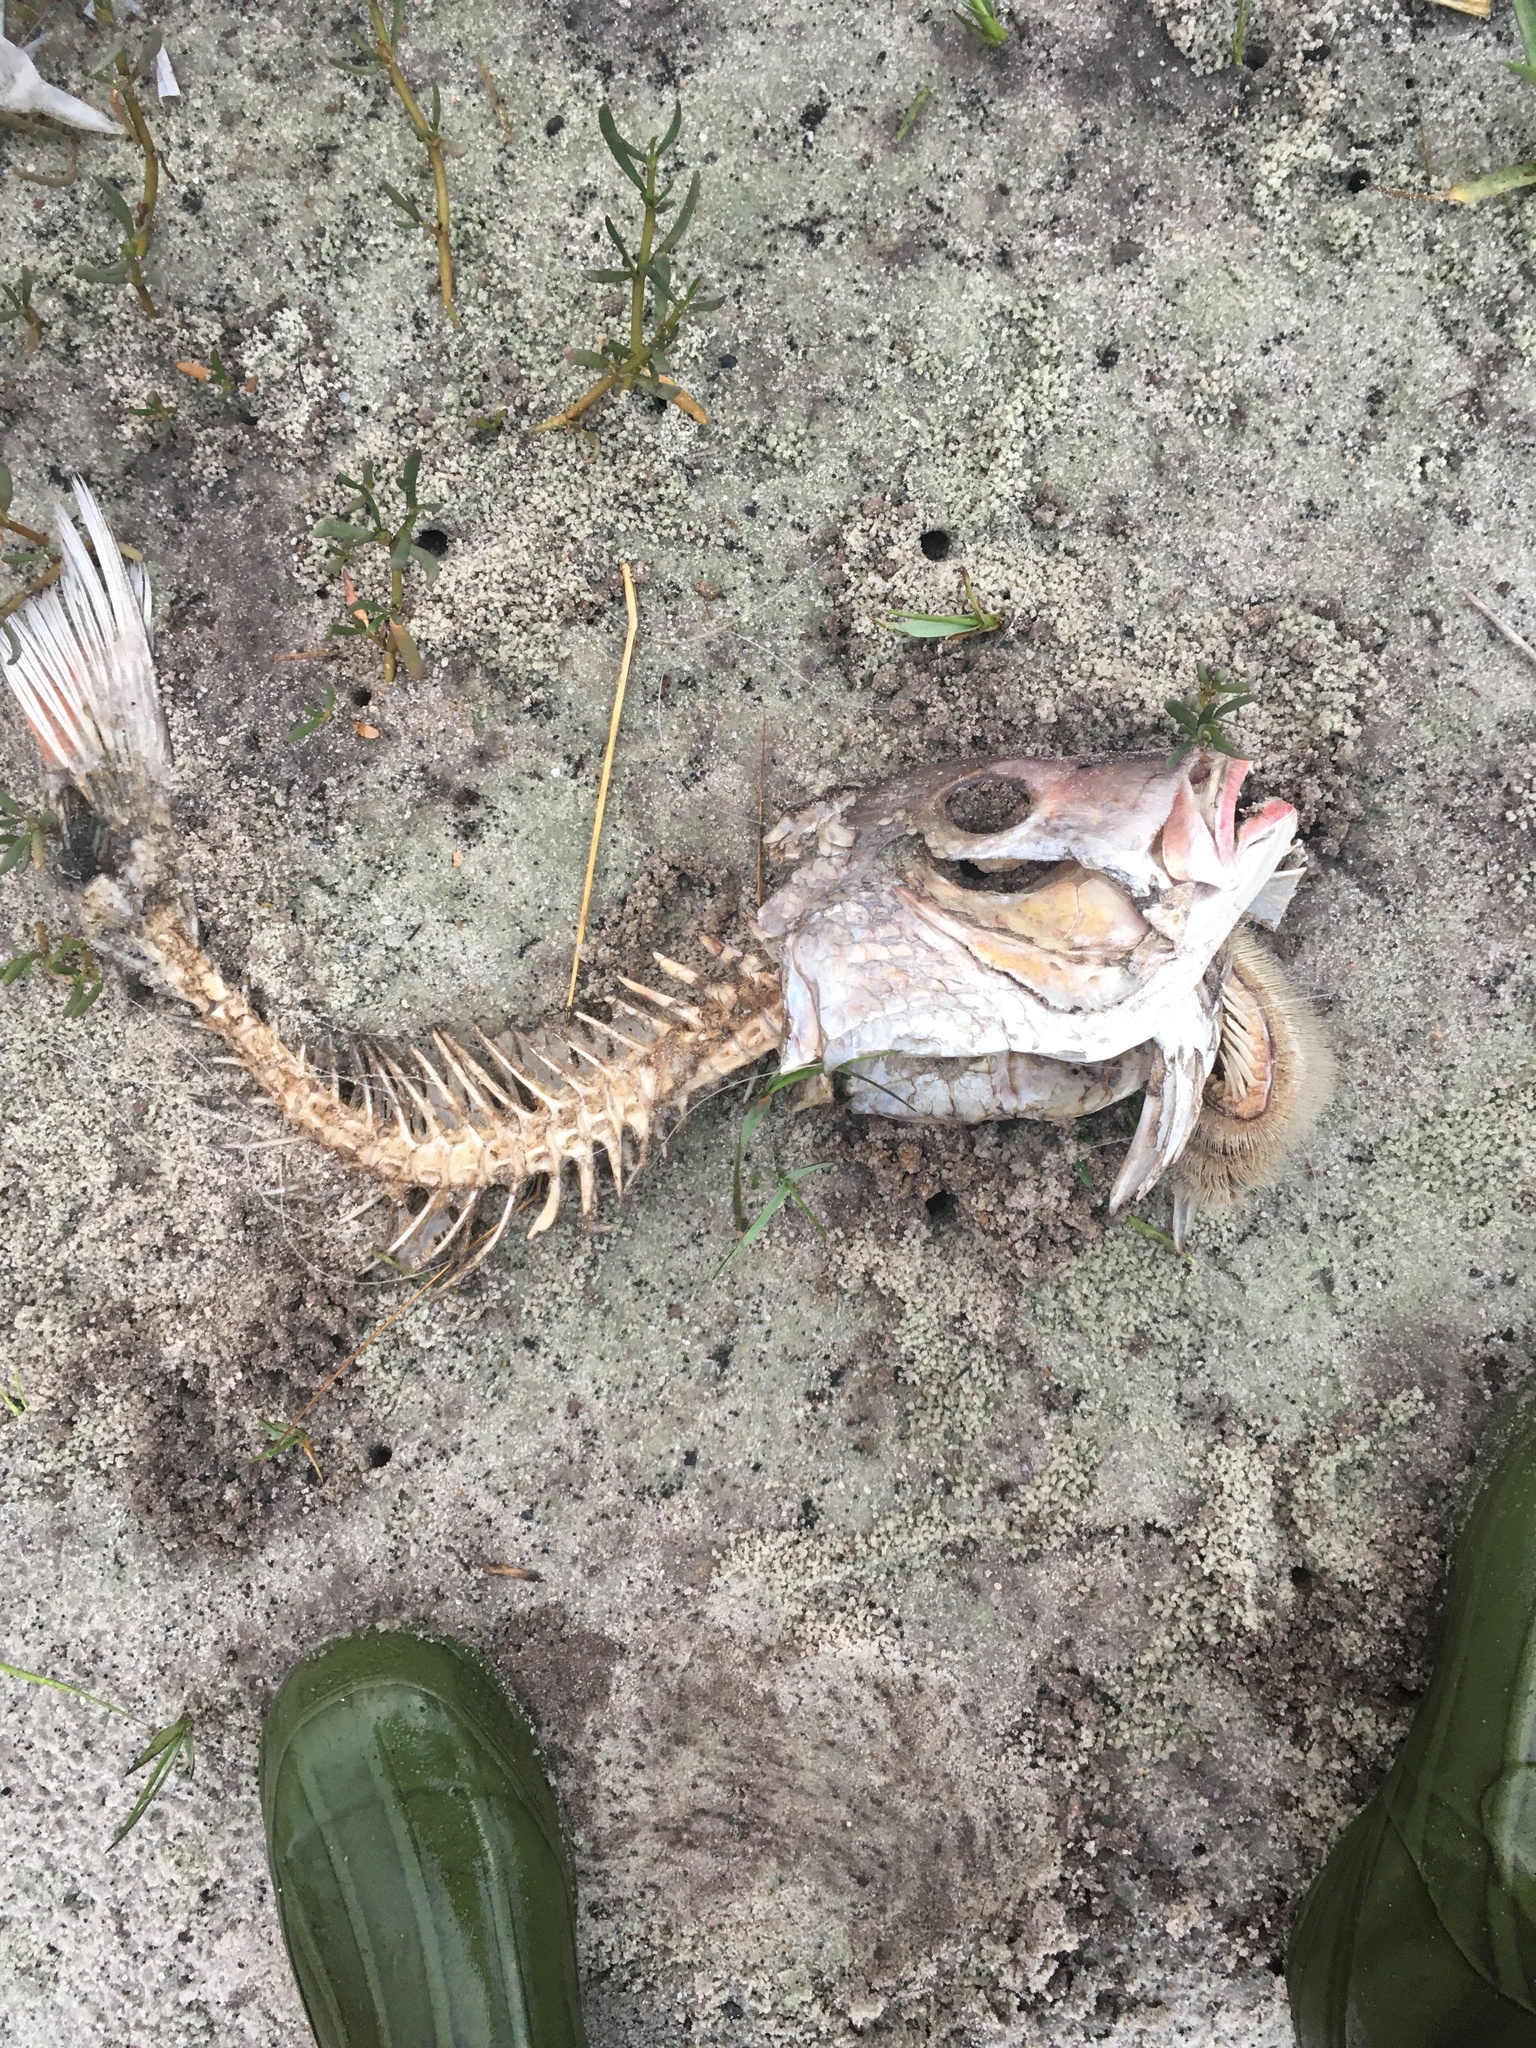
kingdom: Animalia
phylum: Chordata
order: Perciformes
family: Lutjanidae
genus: Lutjanus
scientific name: Lutjanus campechanus
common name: Red snapper
